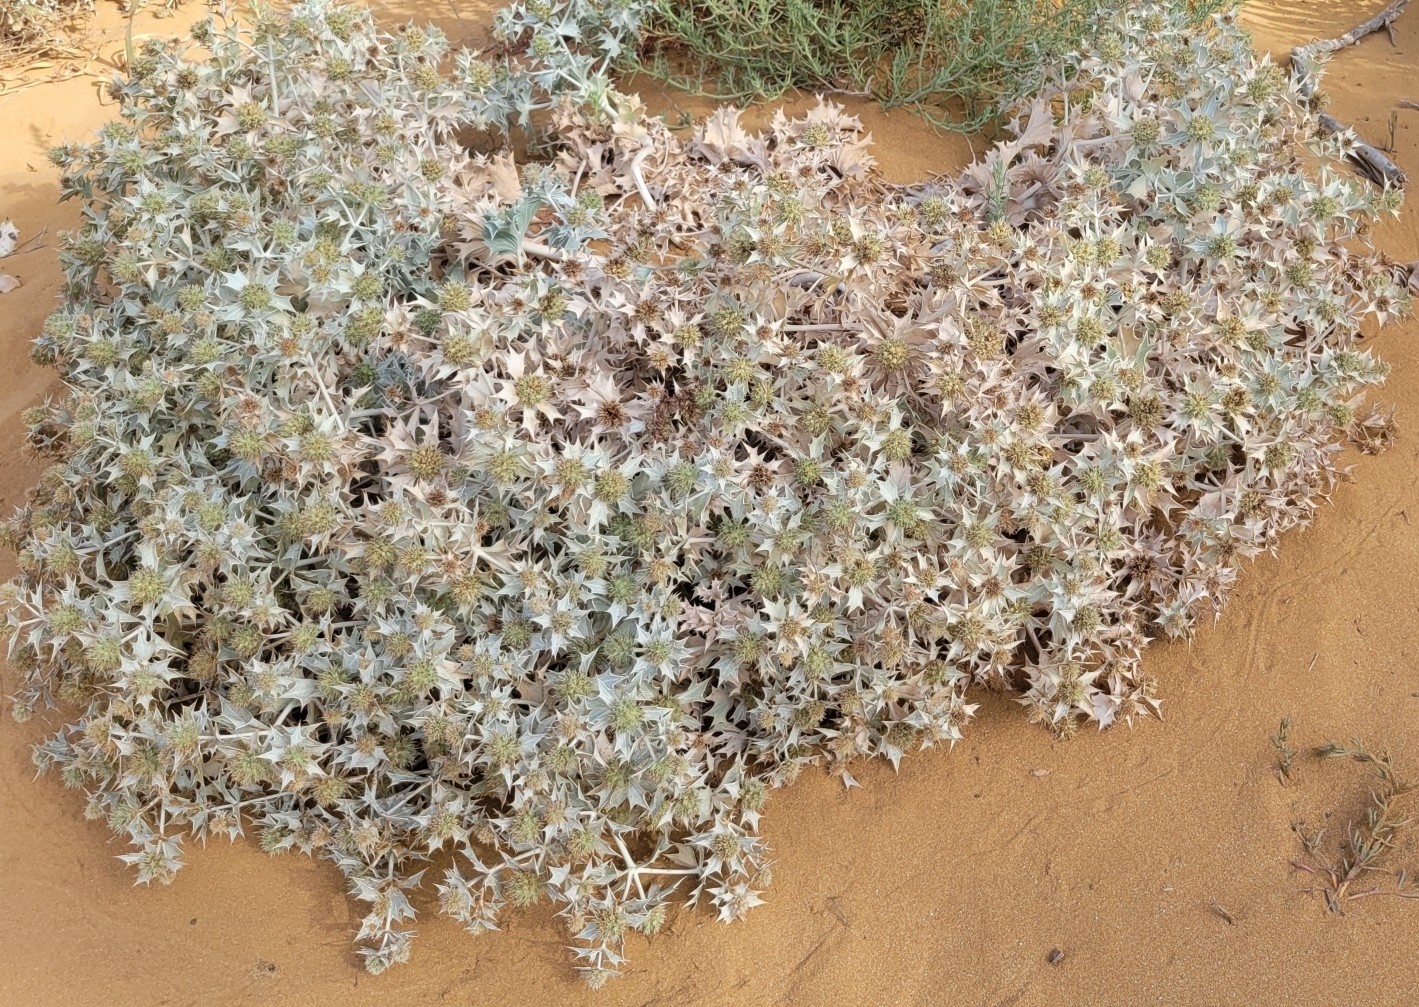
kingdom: Plantae
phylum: Tracheophyta
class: Magnoliopsida
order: Apiales
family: Apiaceae
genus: Eryngium
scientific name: Eryngium maritimum
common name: Sea-holly
